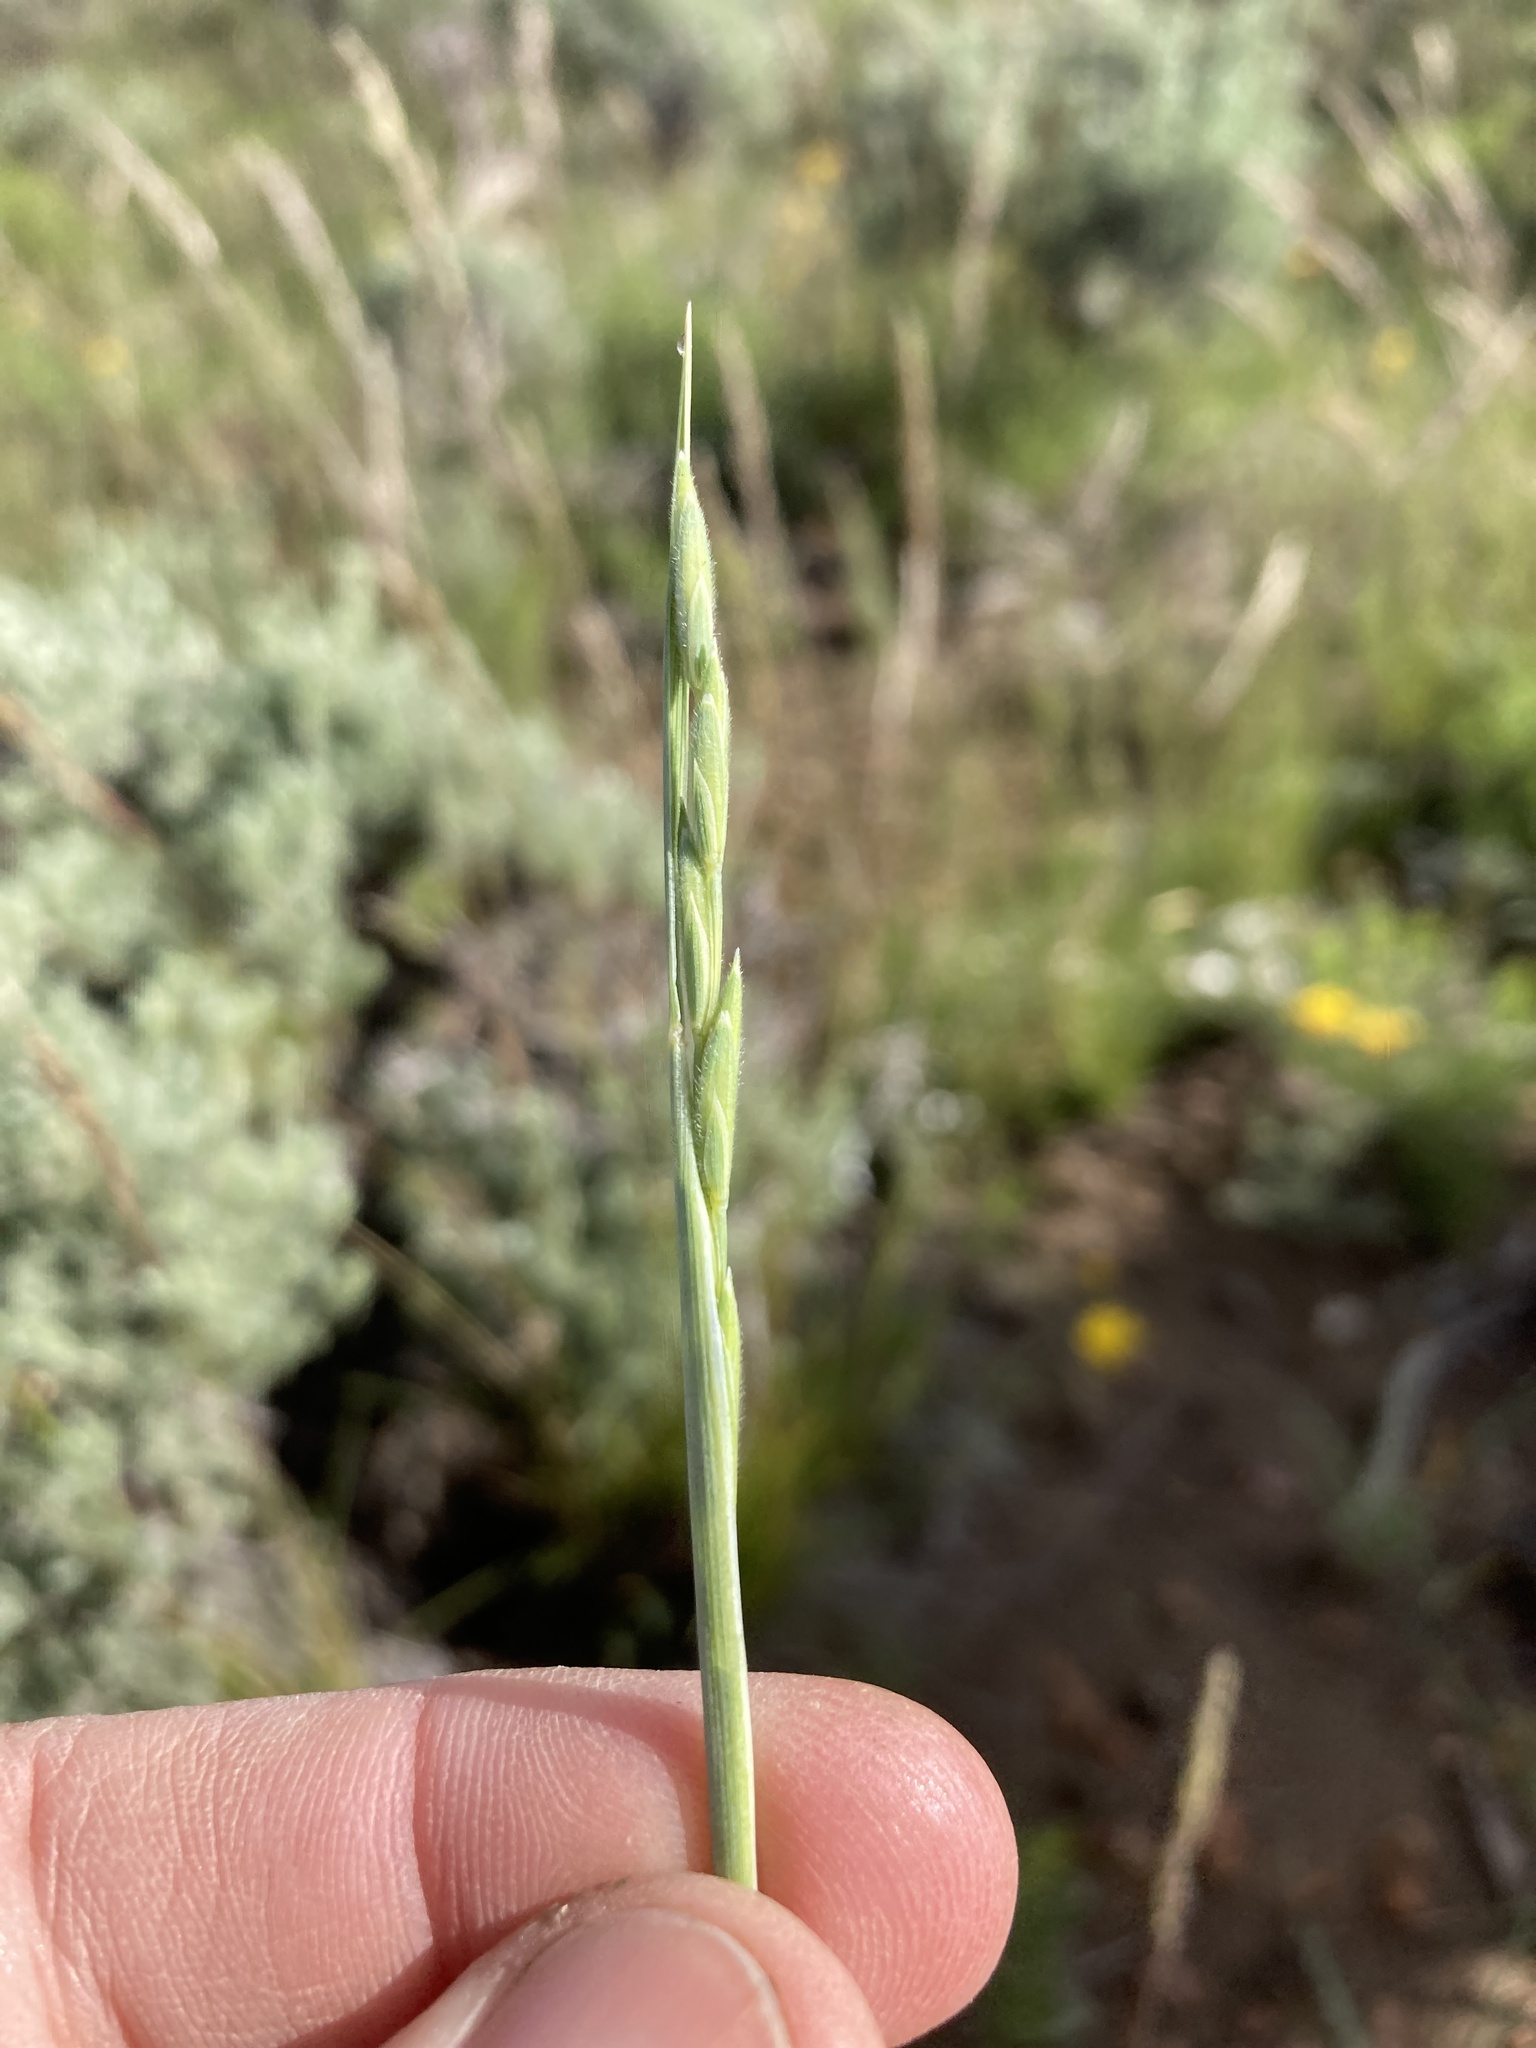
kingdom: Plantae
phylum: Tracheophyta
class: Liliopsida
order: Poales
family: Poaceae
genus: Elymus
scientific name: Elymus lanceolatus
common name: Thick-spike wheatgrass
